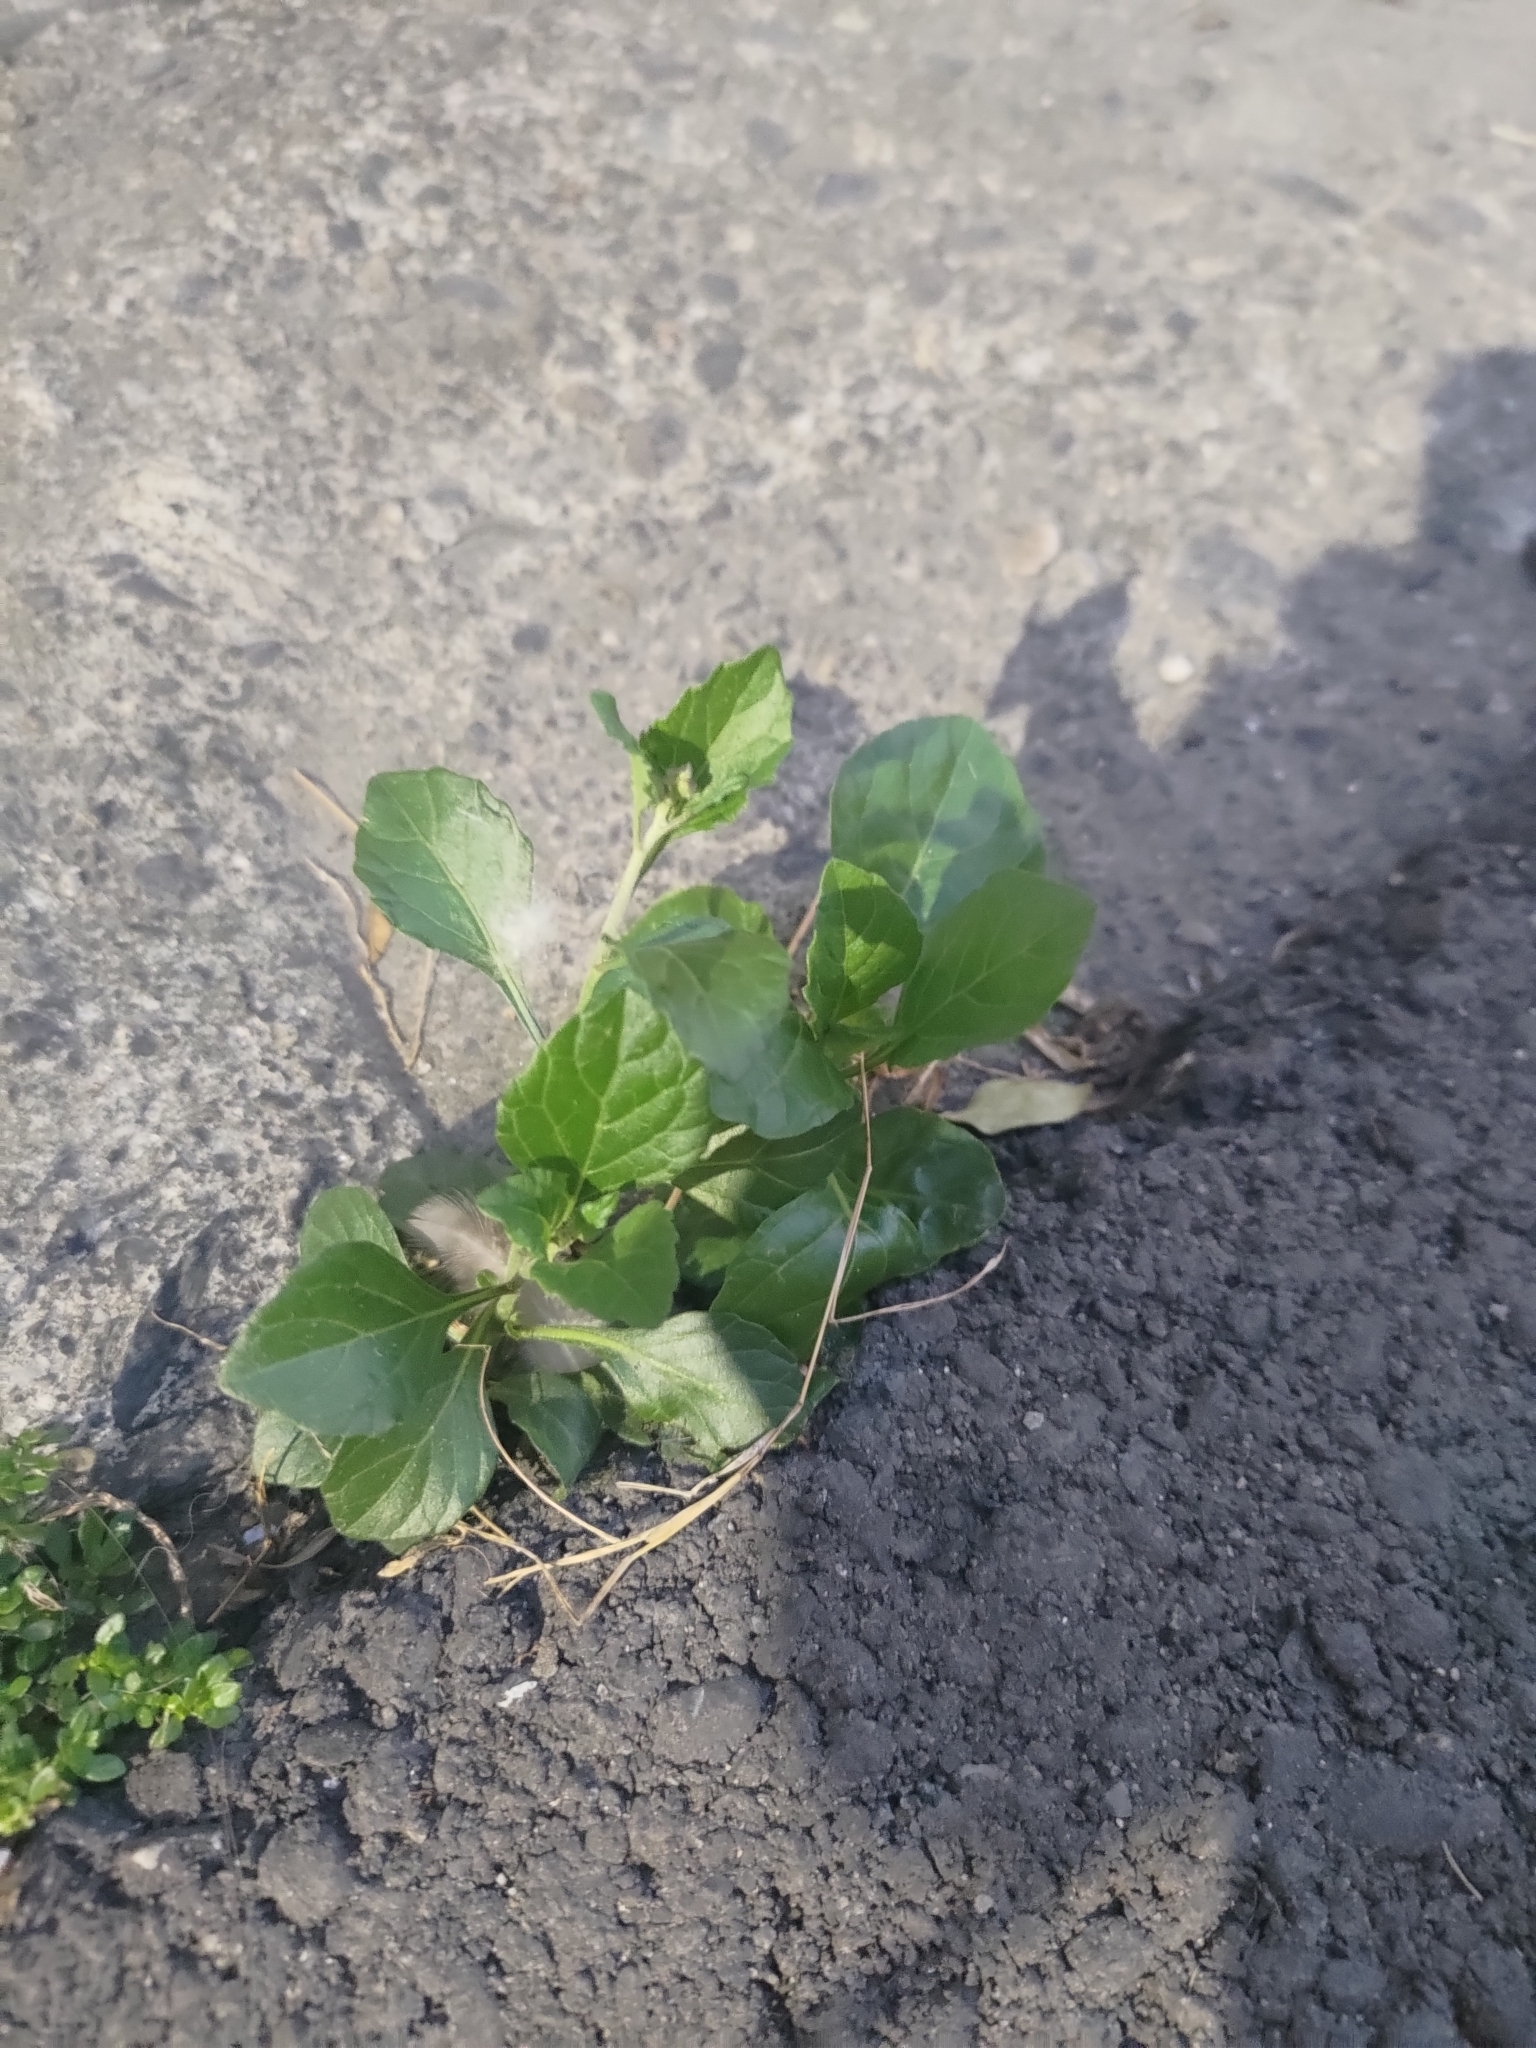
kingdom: Plantae
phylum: Tracheophyta
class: Magnoliopsida
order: Asterales
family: Asteraceae
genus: Cyanthillium
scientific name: Cyanthillium cinereum
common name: Little ironweed
